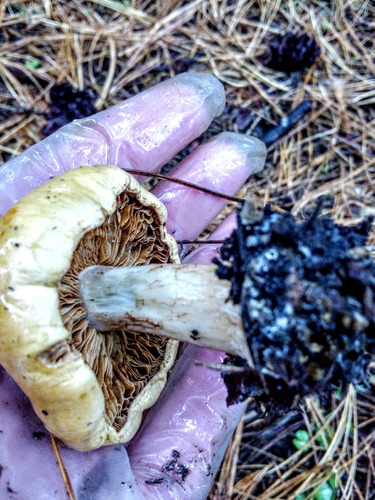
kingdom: Fungi
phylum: Basidiomycota
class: Agaricomycetes
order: Agaricales
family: Cortinariaceae
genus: Cortinarius
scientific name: Cortinarius
